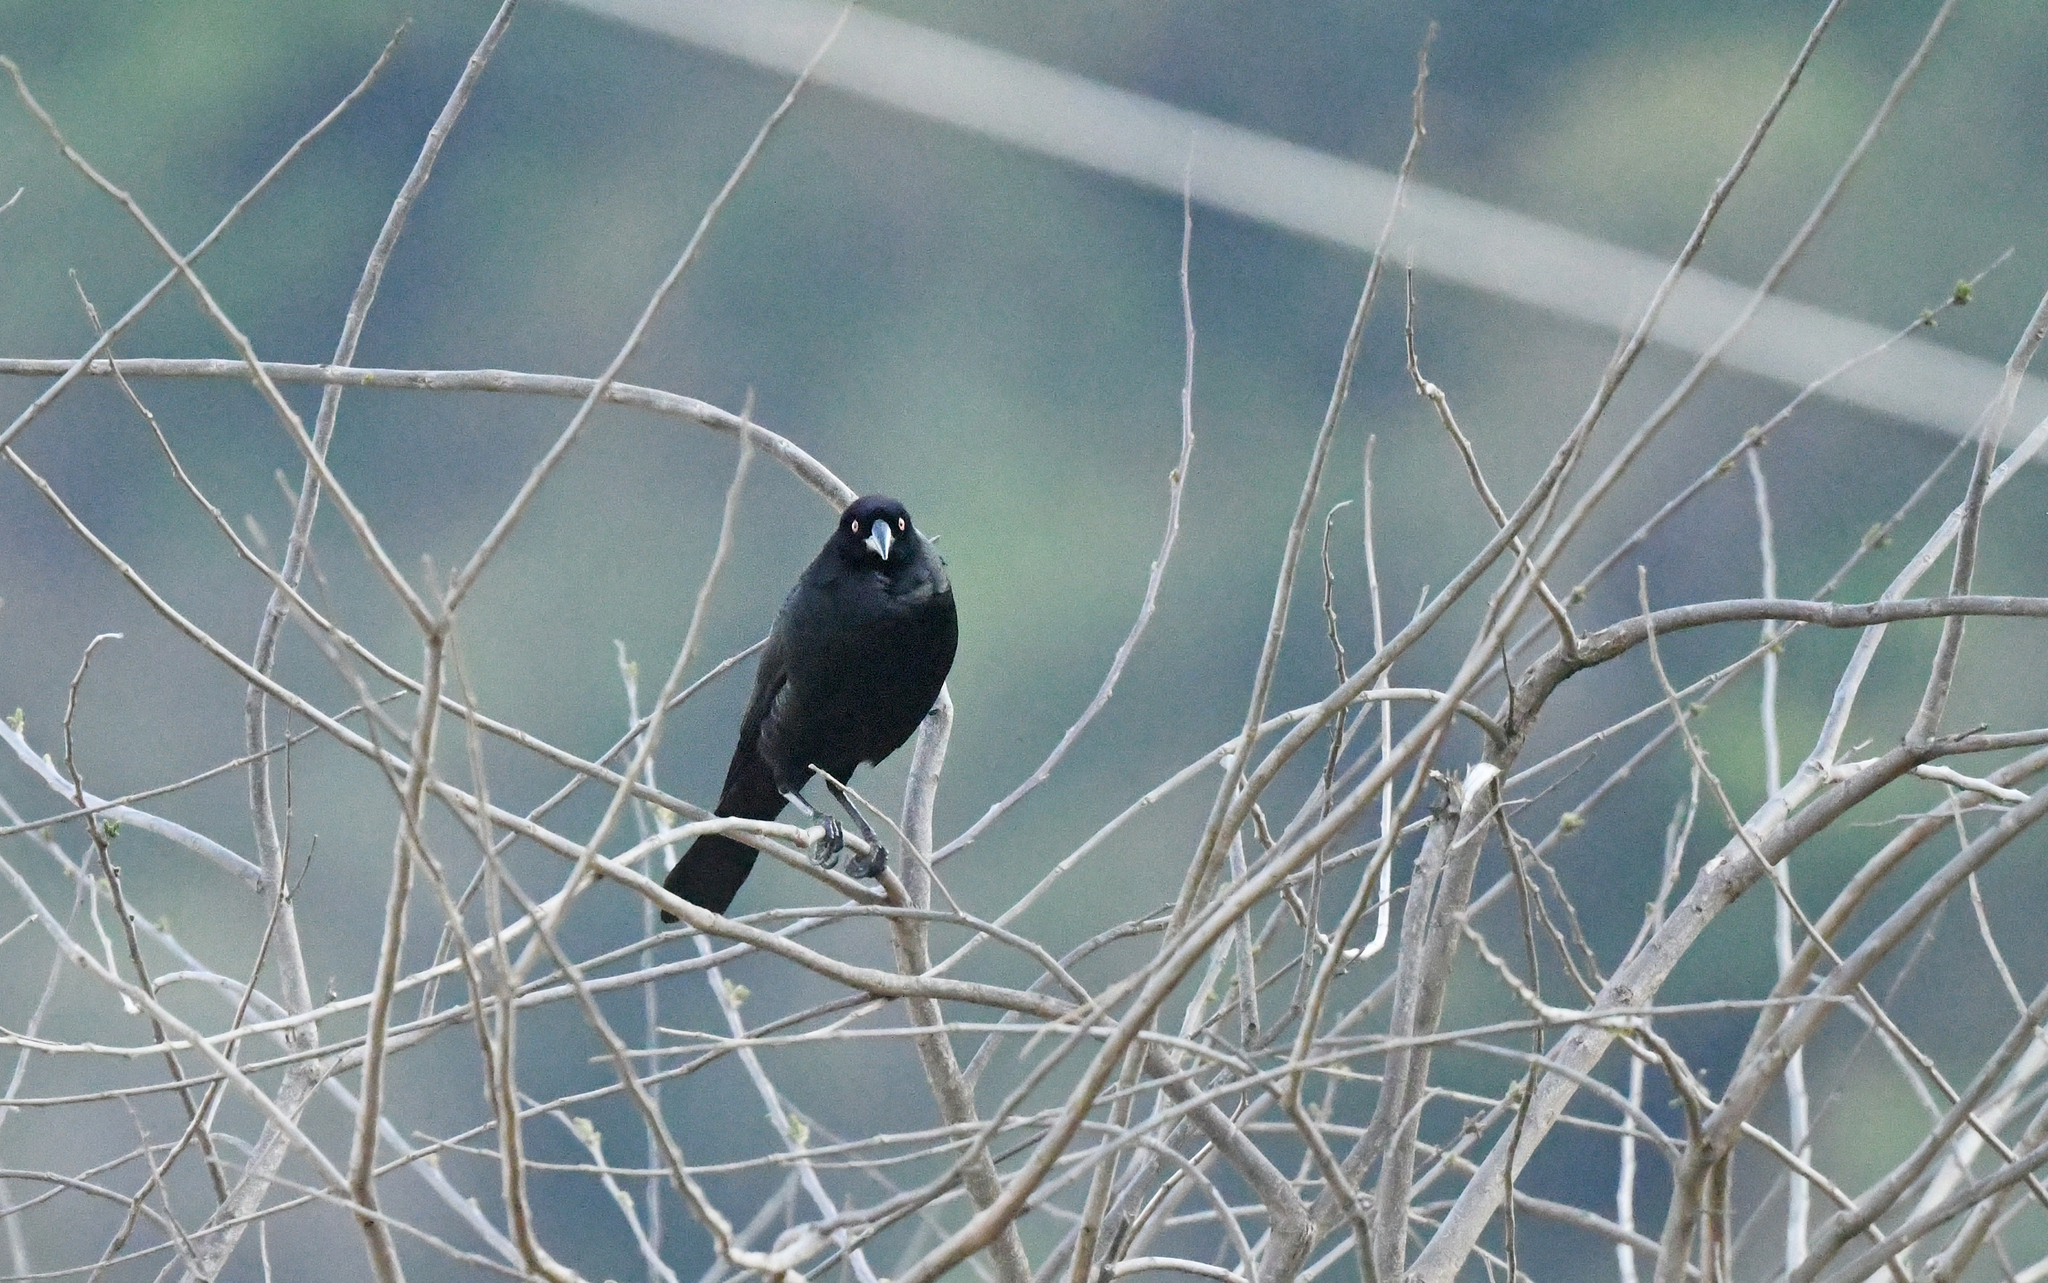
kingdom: Animalia
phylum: Chordata
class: Aves
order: Passeriformes
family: Icteridae
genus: Molothrus
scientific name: Molothrus oryzivorus
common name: Giant cowbird
